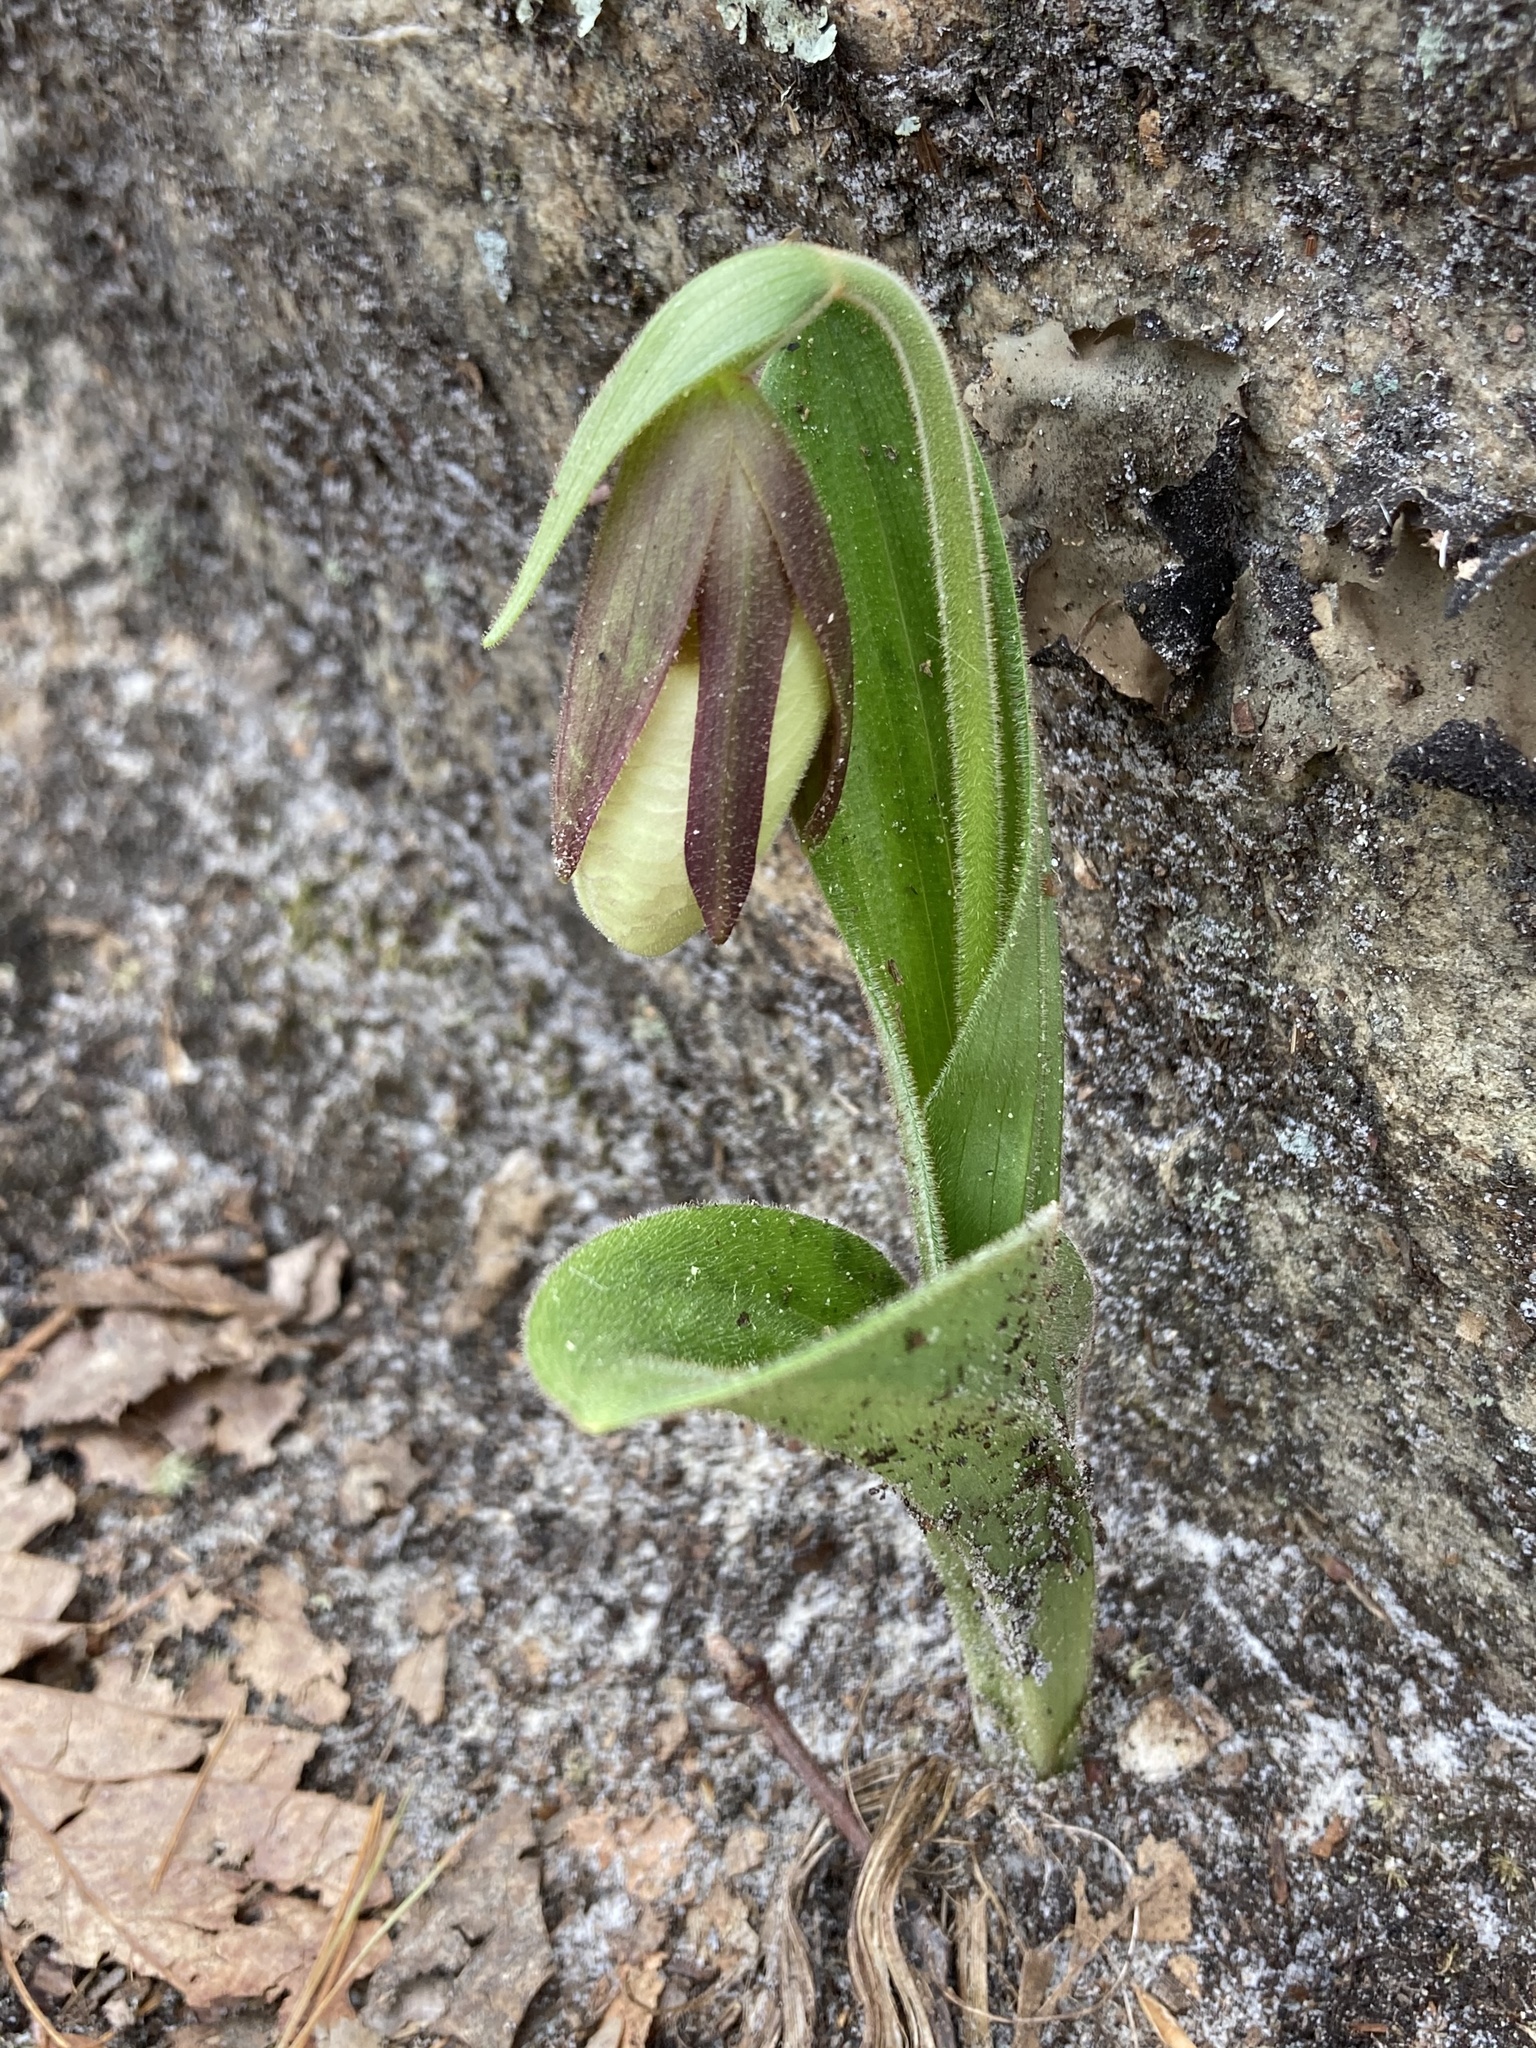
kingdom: Plantae
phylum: Tracheophyta
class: Liliopsida
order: Asparagales
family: Orchidaceae
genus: Cypripedium
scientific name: Cypripedium acaule
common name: Pink lady's-slipper
